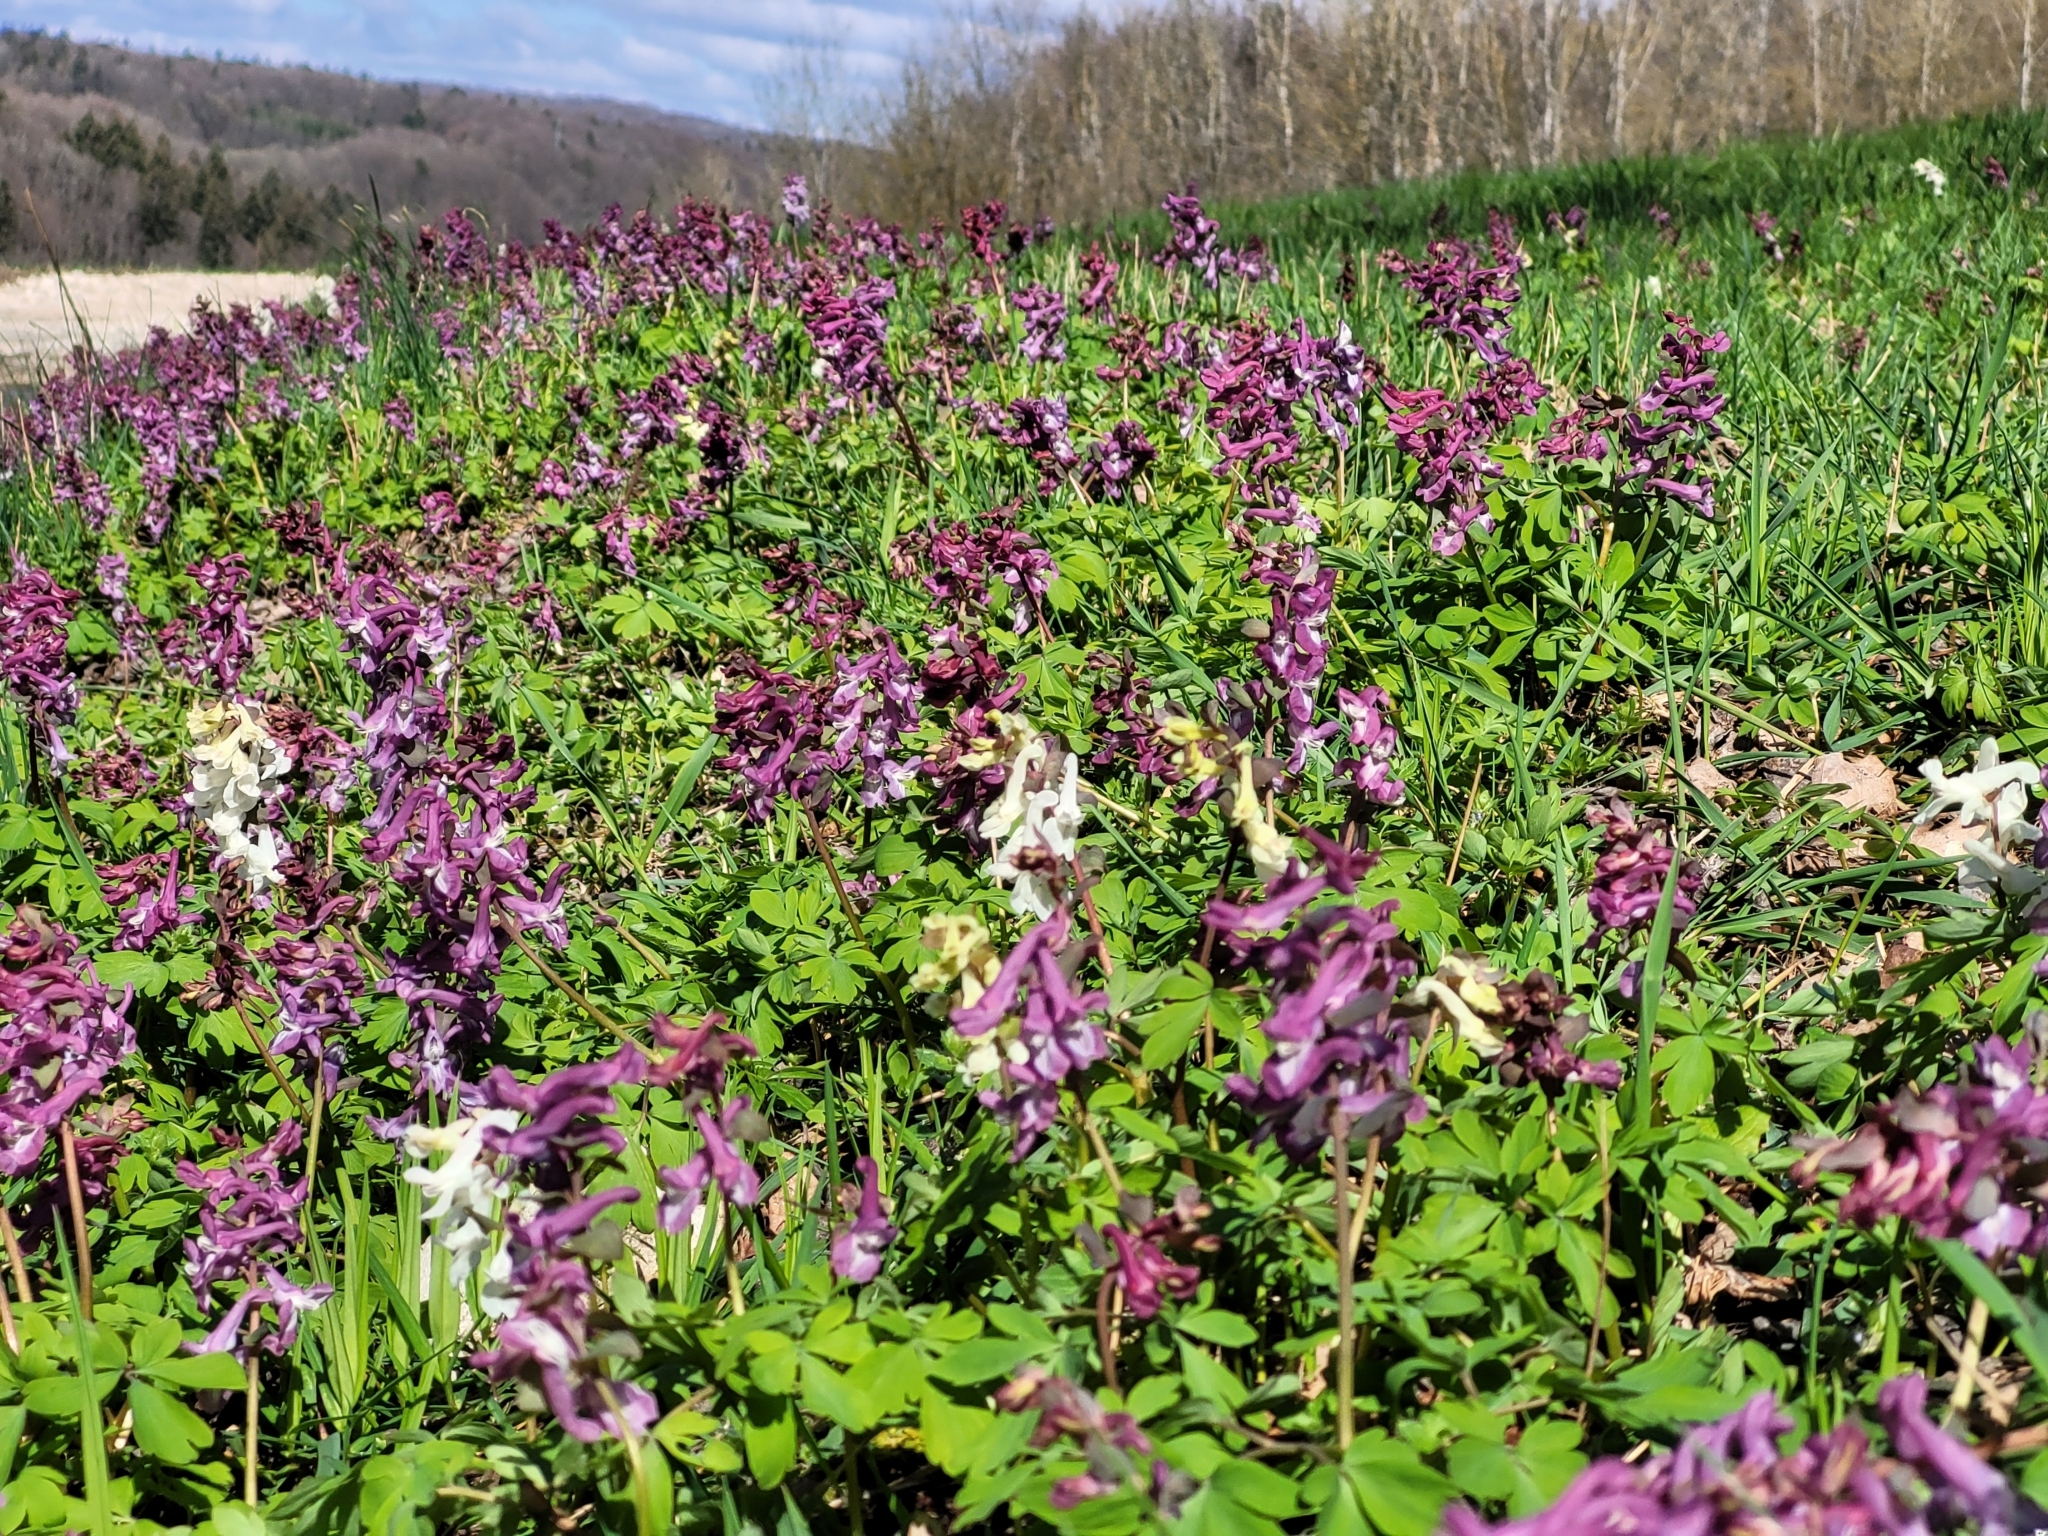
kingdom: Plantae
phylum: Tracheophyta
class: Magnoliopsida
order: Ranunculales
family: Papaveraceae
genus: Corydalis
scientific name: Corydalis cava
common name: Hollowroot
